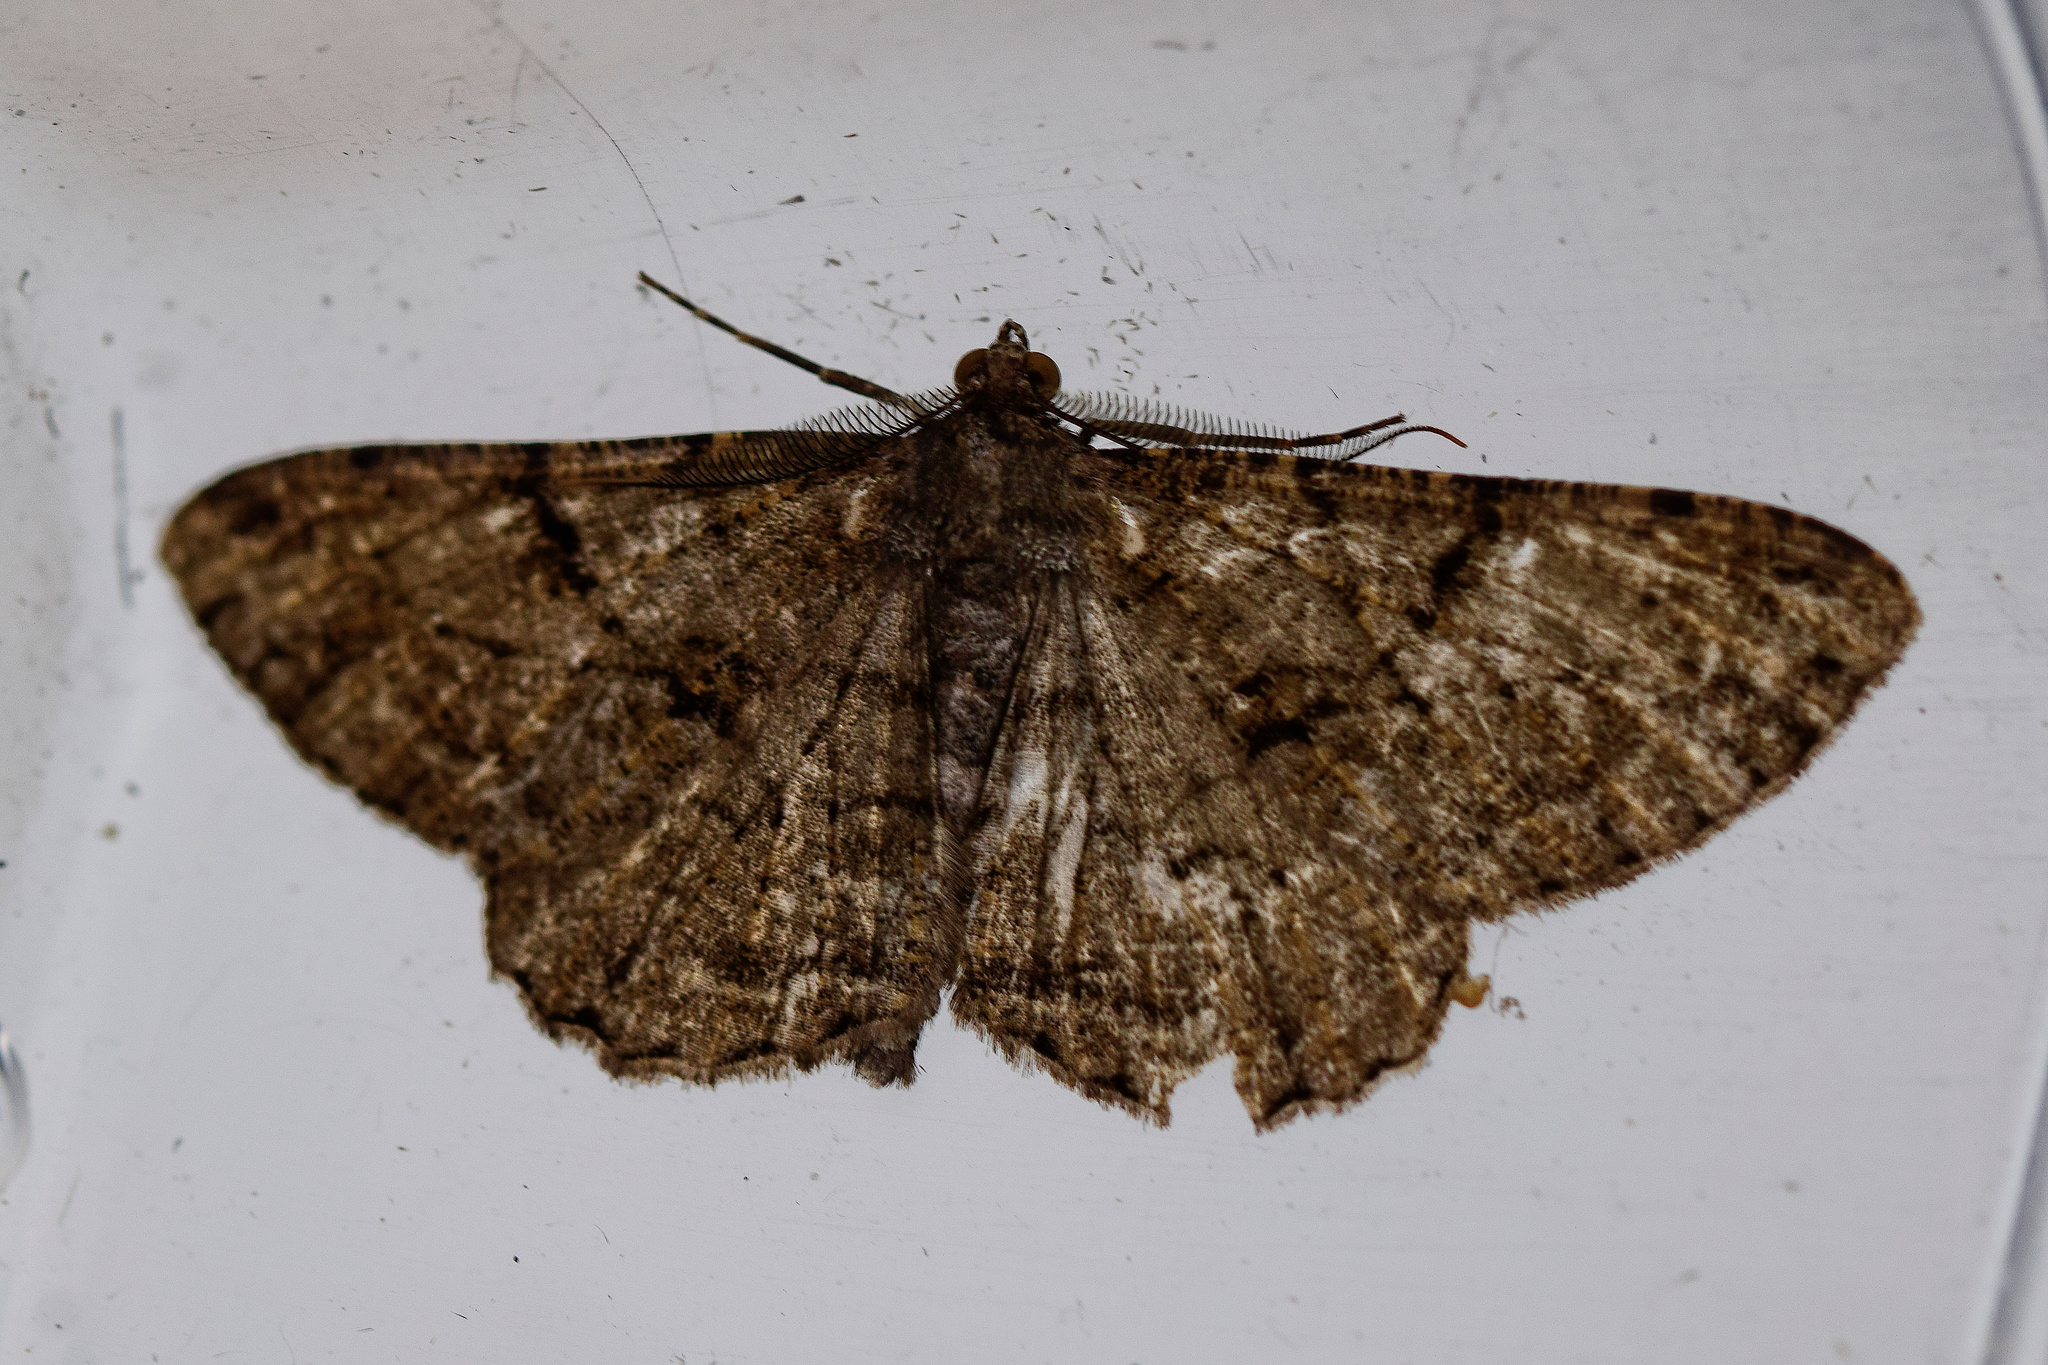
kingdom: Animalia
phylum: Arthropoda
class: Insecta
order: Lepidoptera
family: Geometridae
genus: Peribatodes
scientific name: Peribatodes rhomboidaria
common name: Willow beauty
